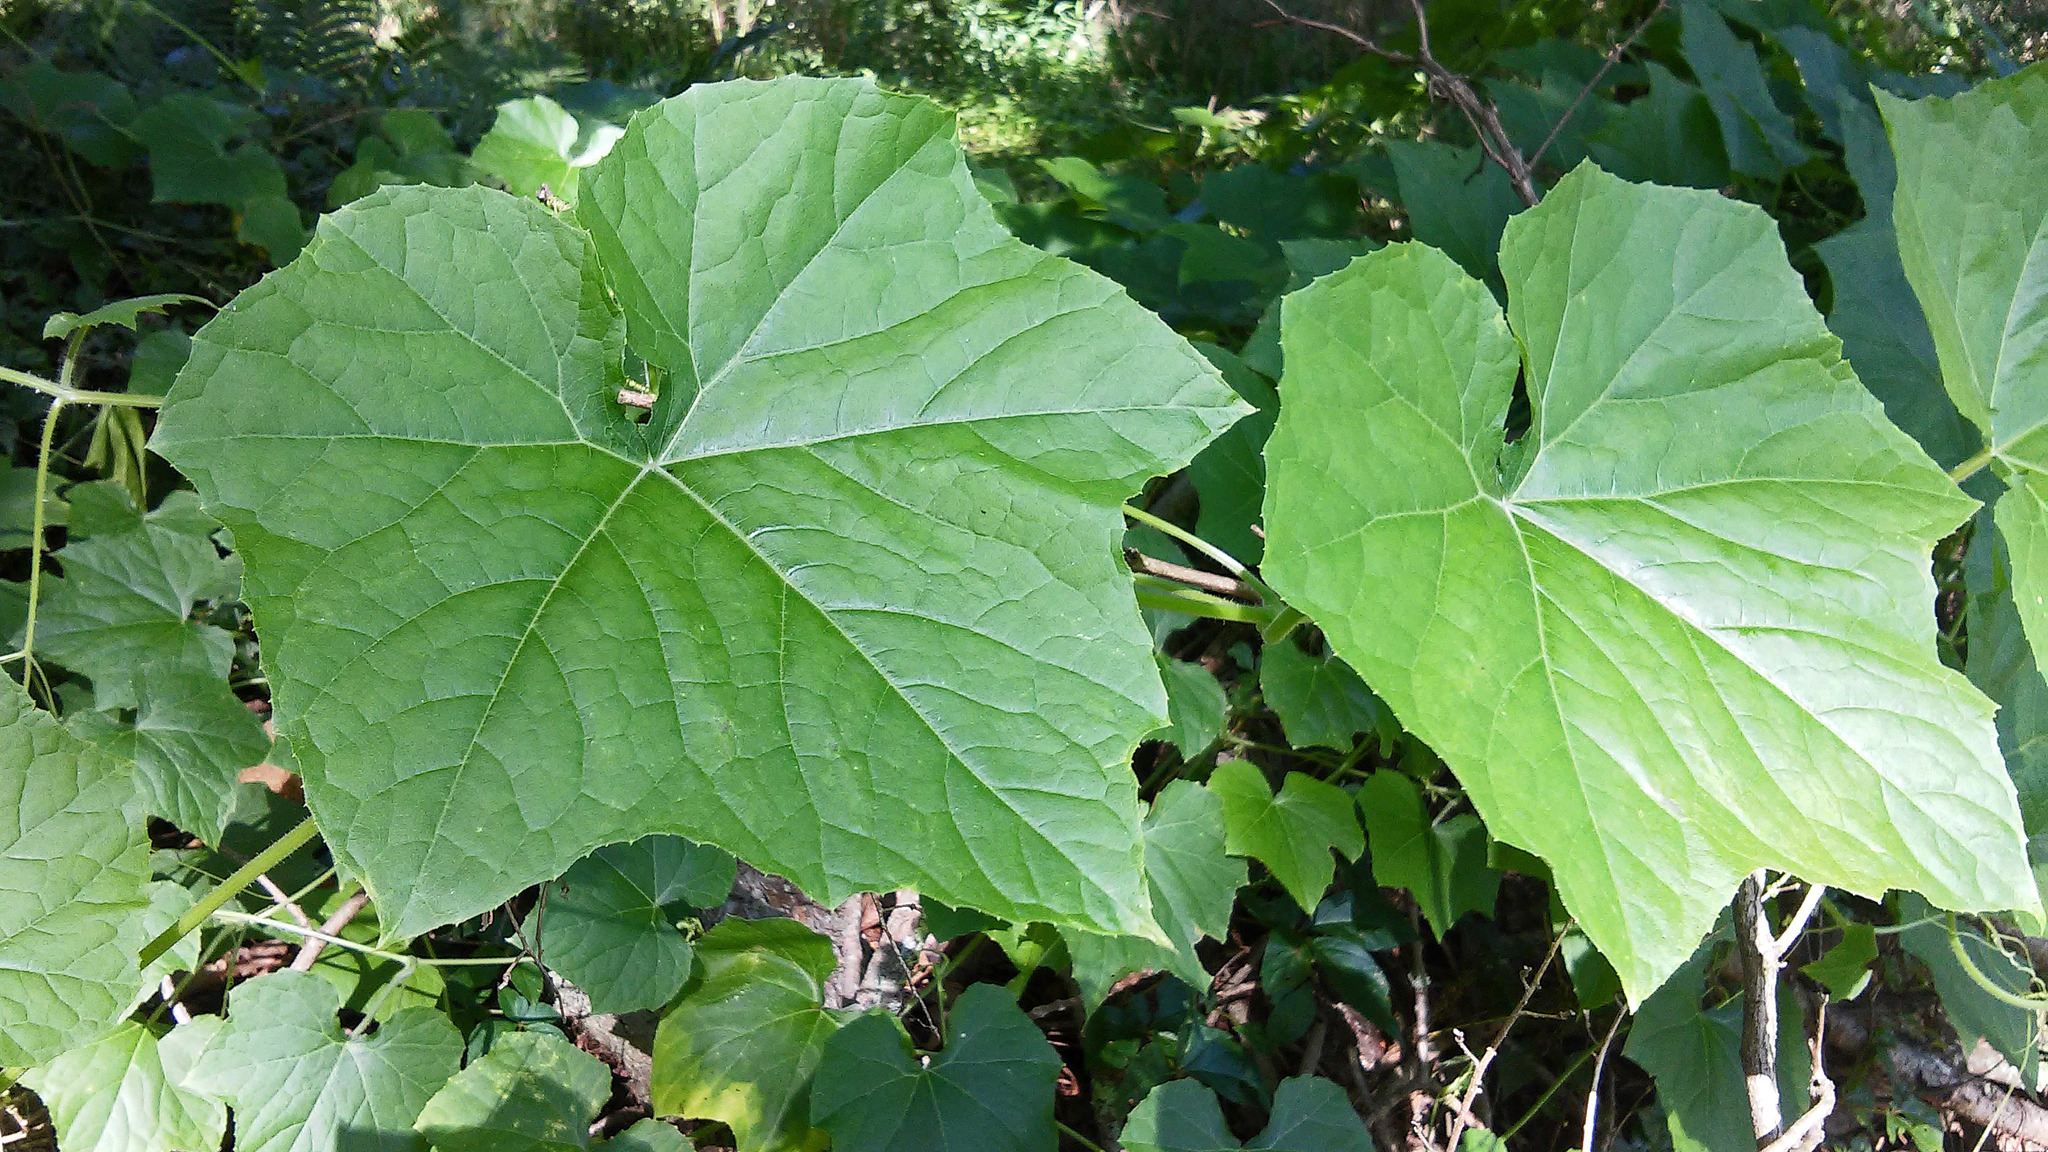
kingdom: Plantae
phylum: Tracheophyta
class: Magnoliopsida
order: Cucurbitales
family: Cucurbitaceae
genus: Sicyos
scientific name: Sicyos angulatus
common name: Angled burr cucumber
